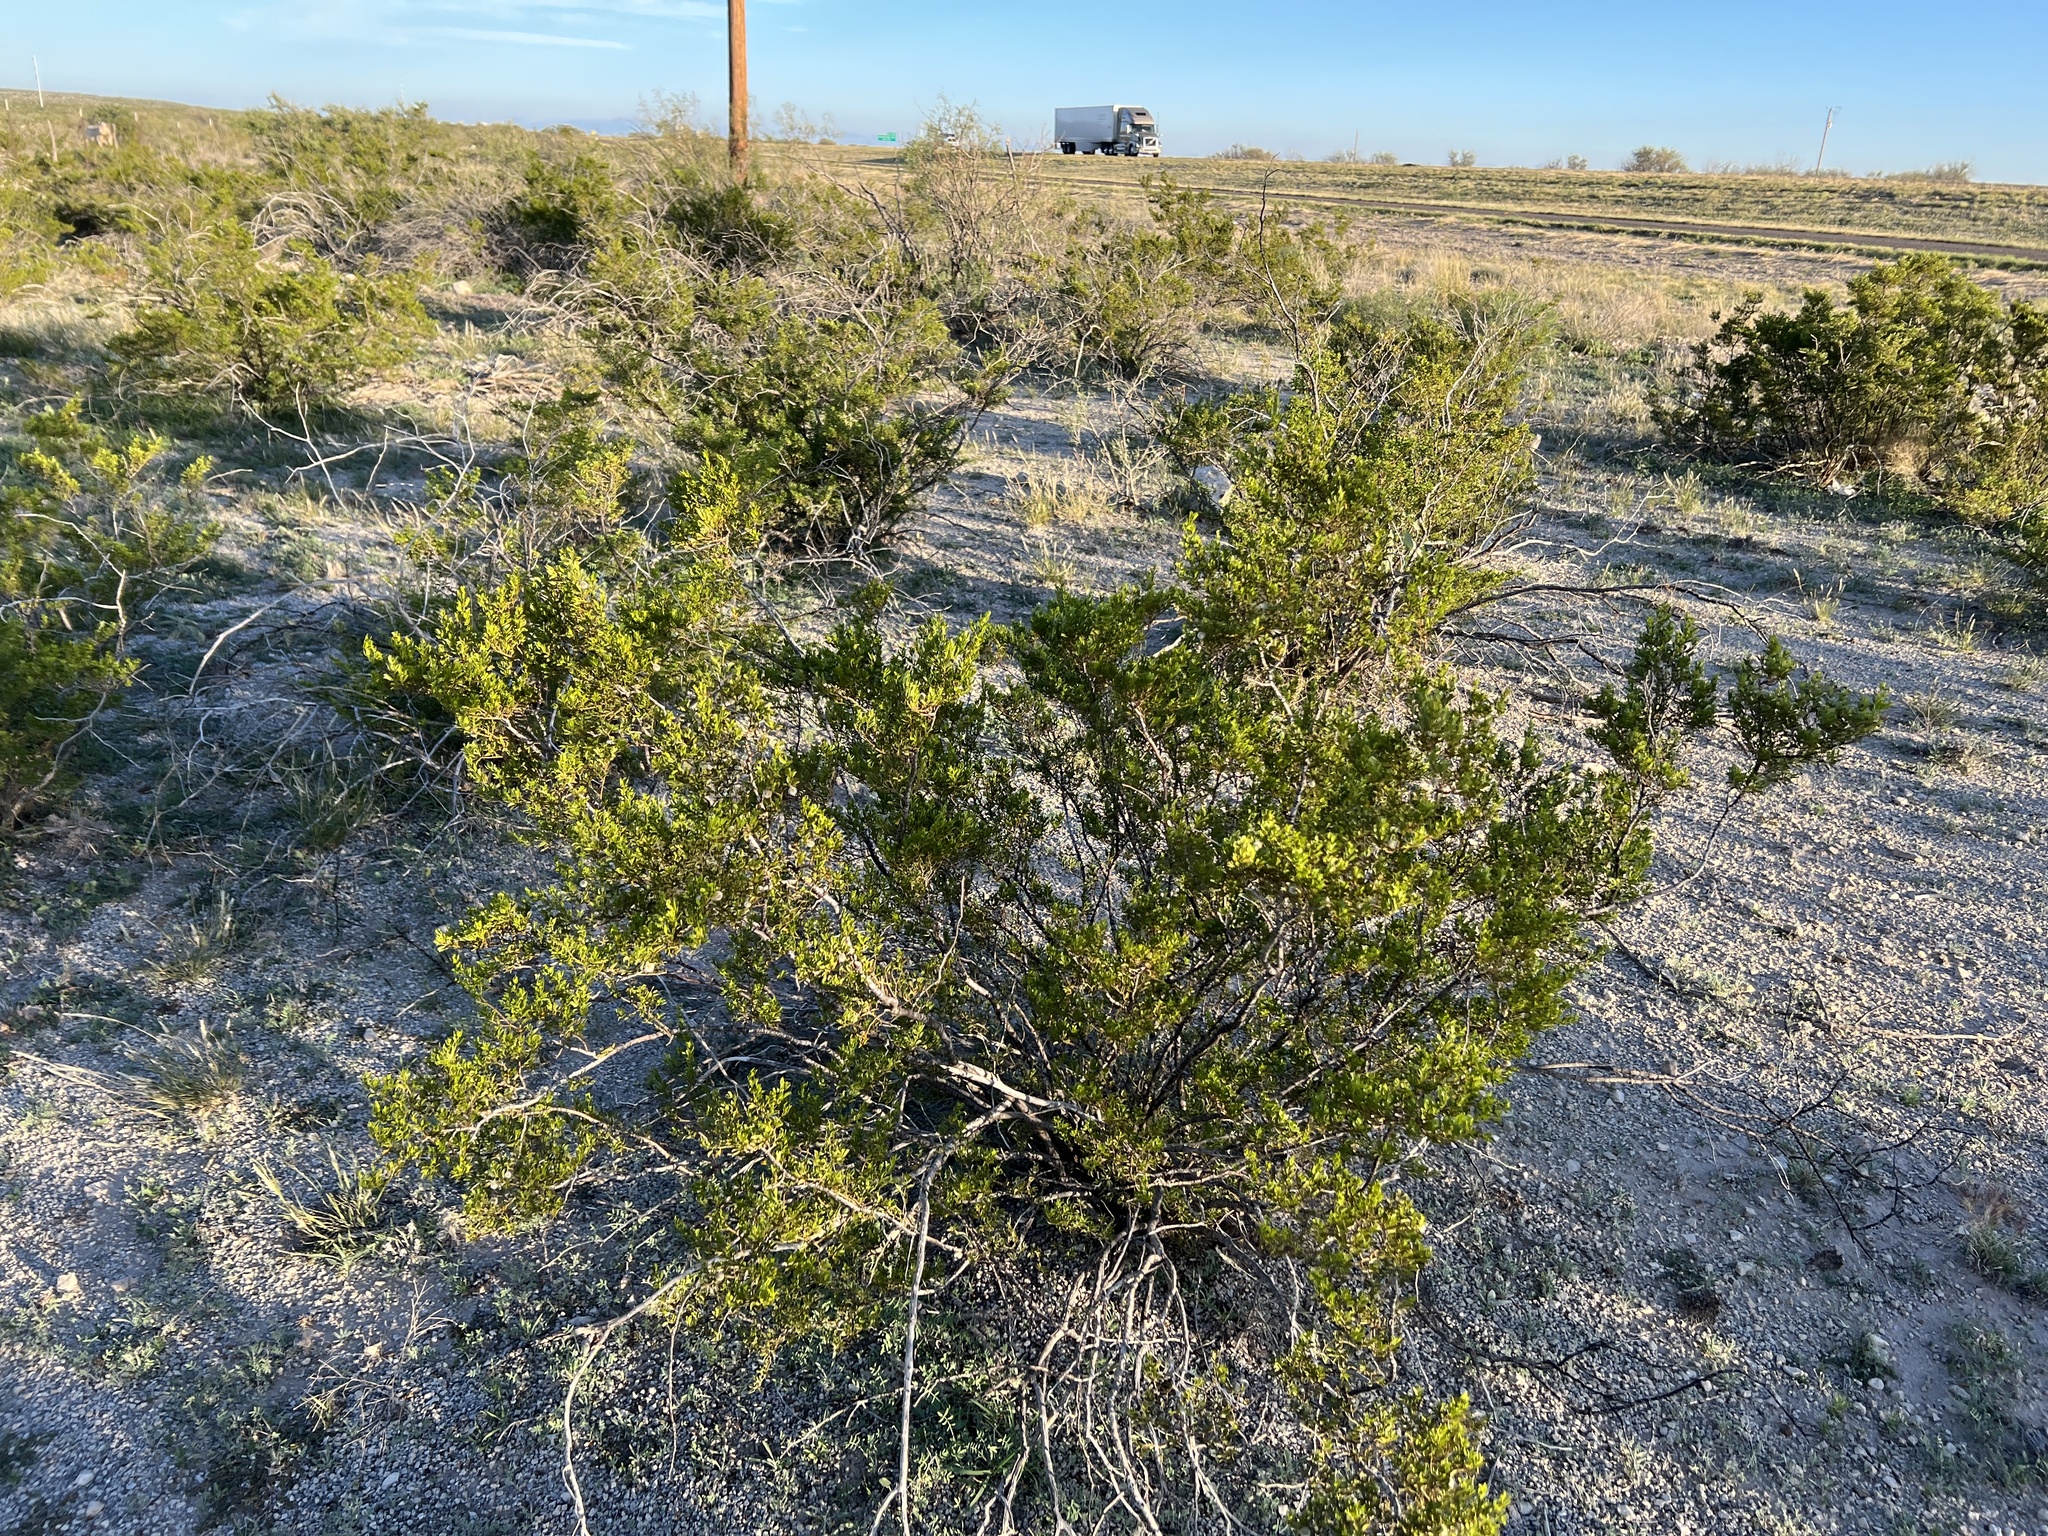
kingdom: Plantae
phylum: Tracheophyta
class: Magnoliopsida
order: Zygophyllales
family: Zygophyllaceae
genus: Larrea
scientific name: Larrea tridentata
